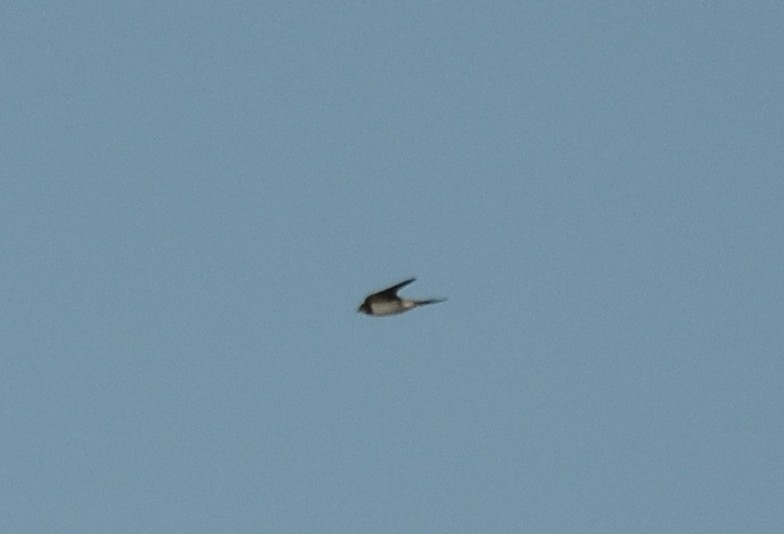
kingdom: Animalia
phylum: Chordata
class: Aves
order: Passeriformes
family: Hirundinidae
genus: Hirundo
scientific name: Hirundo rustica
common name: Barn swallow
